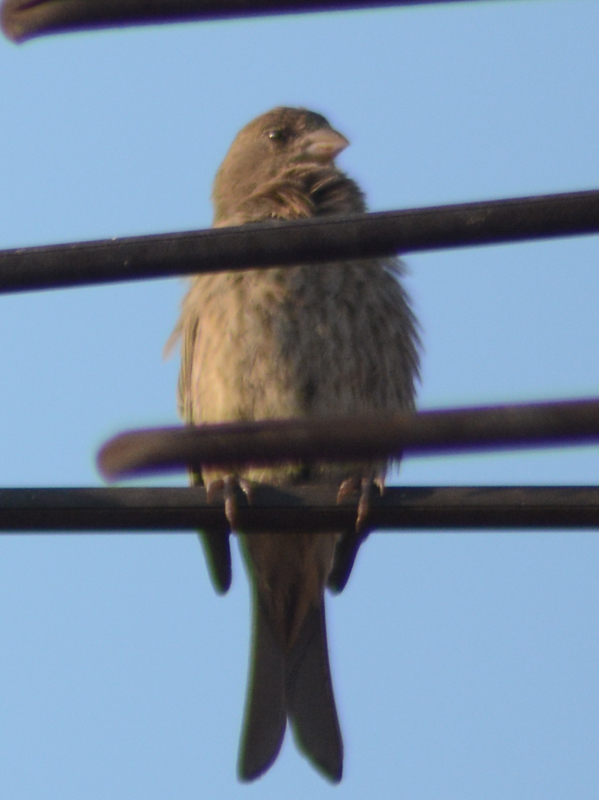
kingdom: Animalia
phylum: Chordata
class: Aves
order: Passeriformes
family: Fringillidae
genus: Haemorhous
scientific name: Haemorhous mexicanus
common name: House finch
